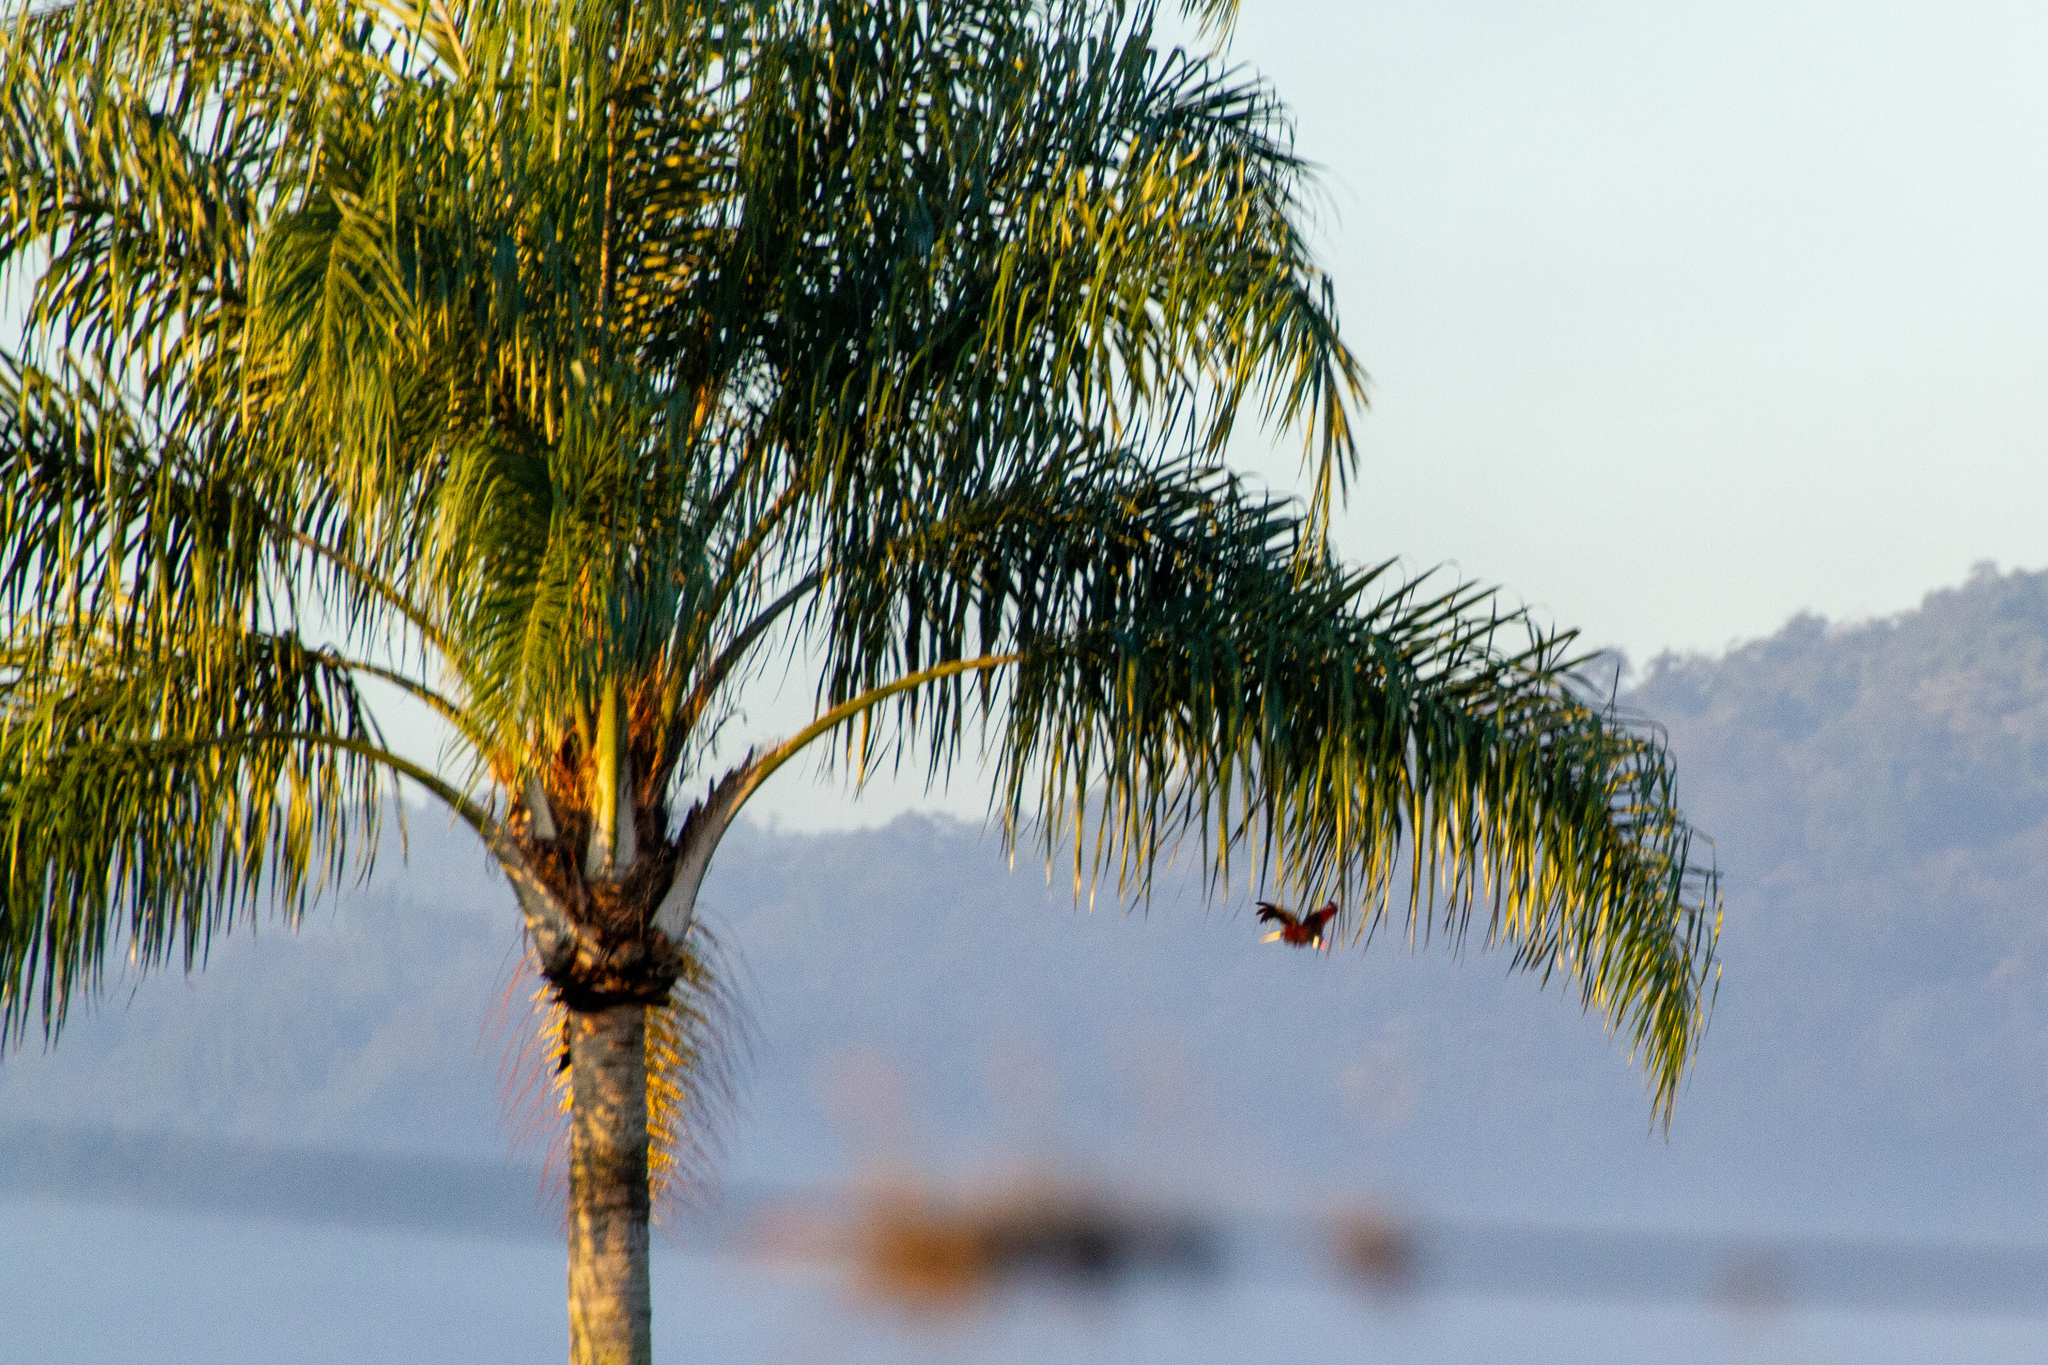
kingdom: Animalia
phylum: Chordata
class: Aves
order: Passeriformes
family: Icteridae
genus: Psarocolius
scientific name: Psarocolius montezuma
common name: Montezuma oropendola
